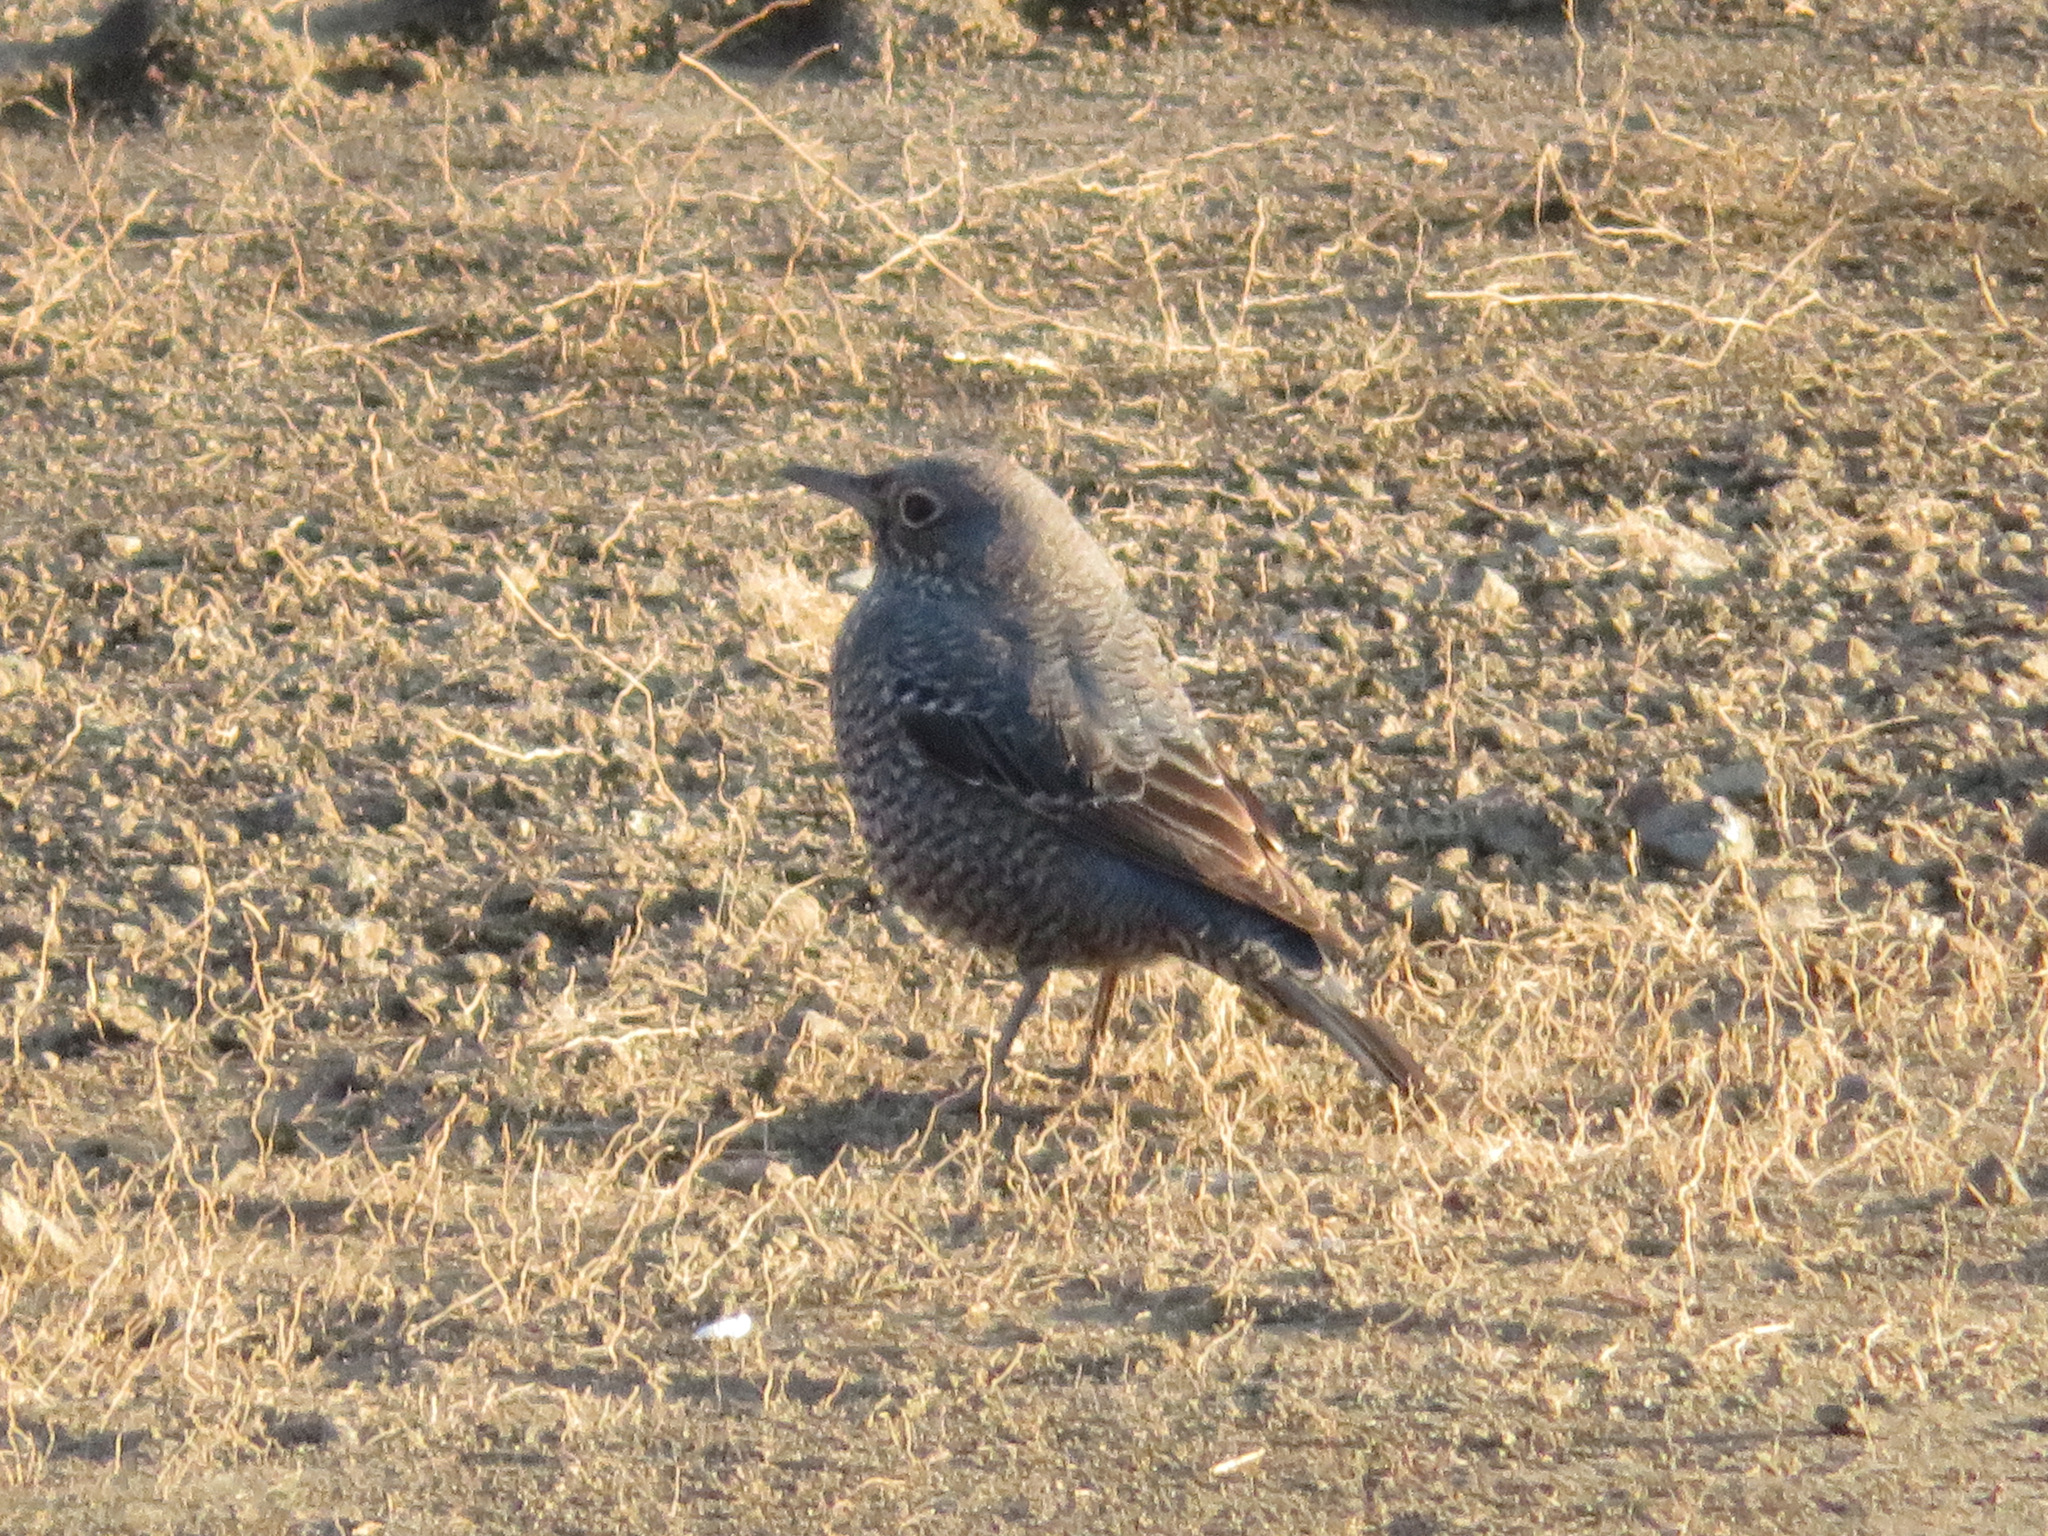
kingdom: Animalia
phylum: Chordata
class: Aves
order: Passeriformes
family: Muscicapidae
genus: Monticola
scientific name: Monticola solitarius
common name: Blue rock thrush
